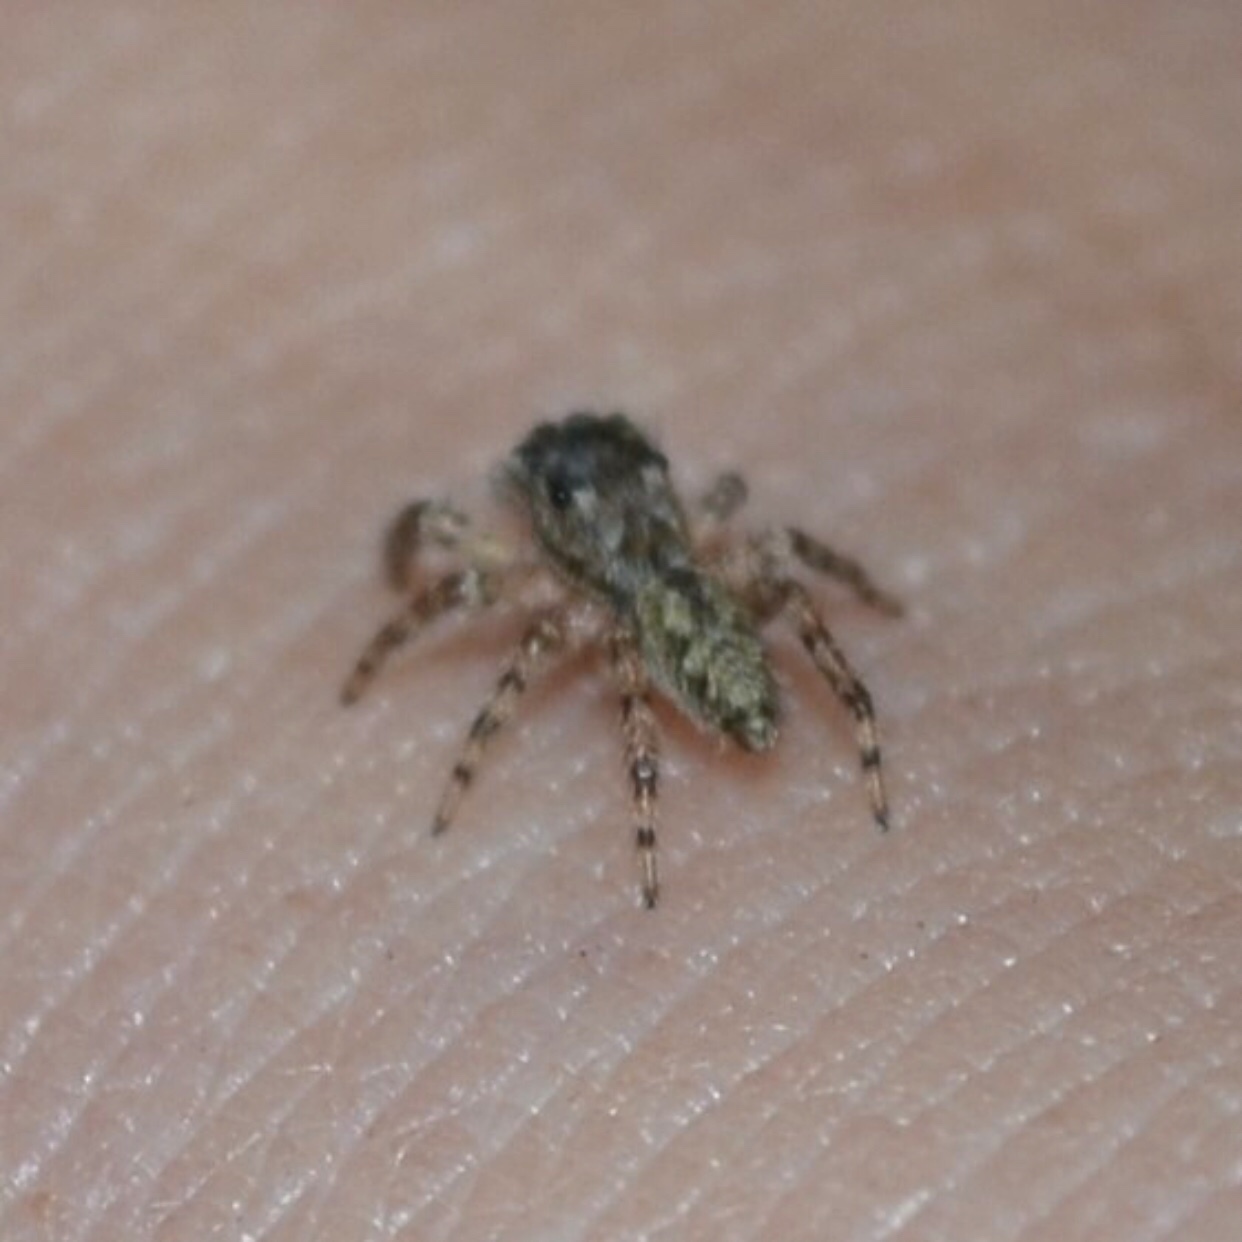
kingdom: Animalia
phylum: Arthropoda
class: Arachnida
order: Araneae
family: Salticidae
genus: Platycryptus
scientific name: Platycryptus undatus
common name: Tan jumping spider
